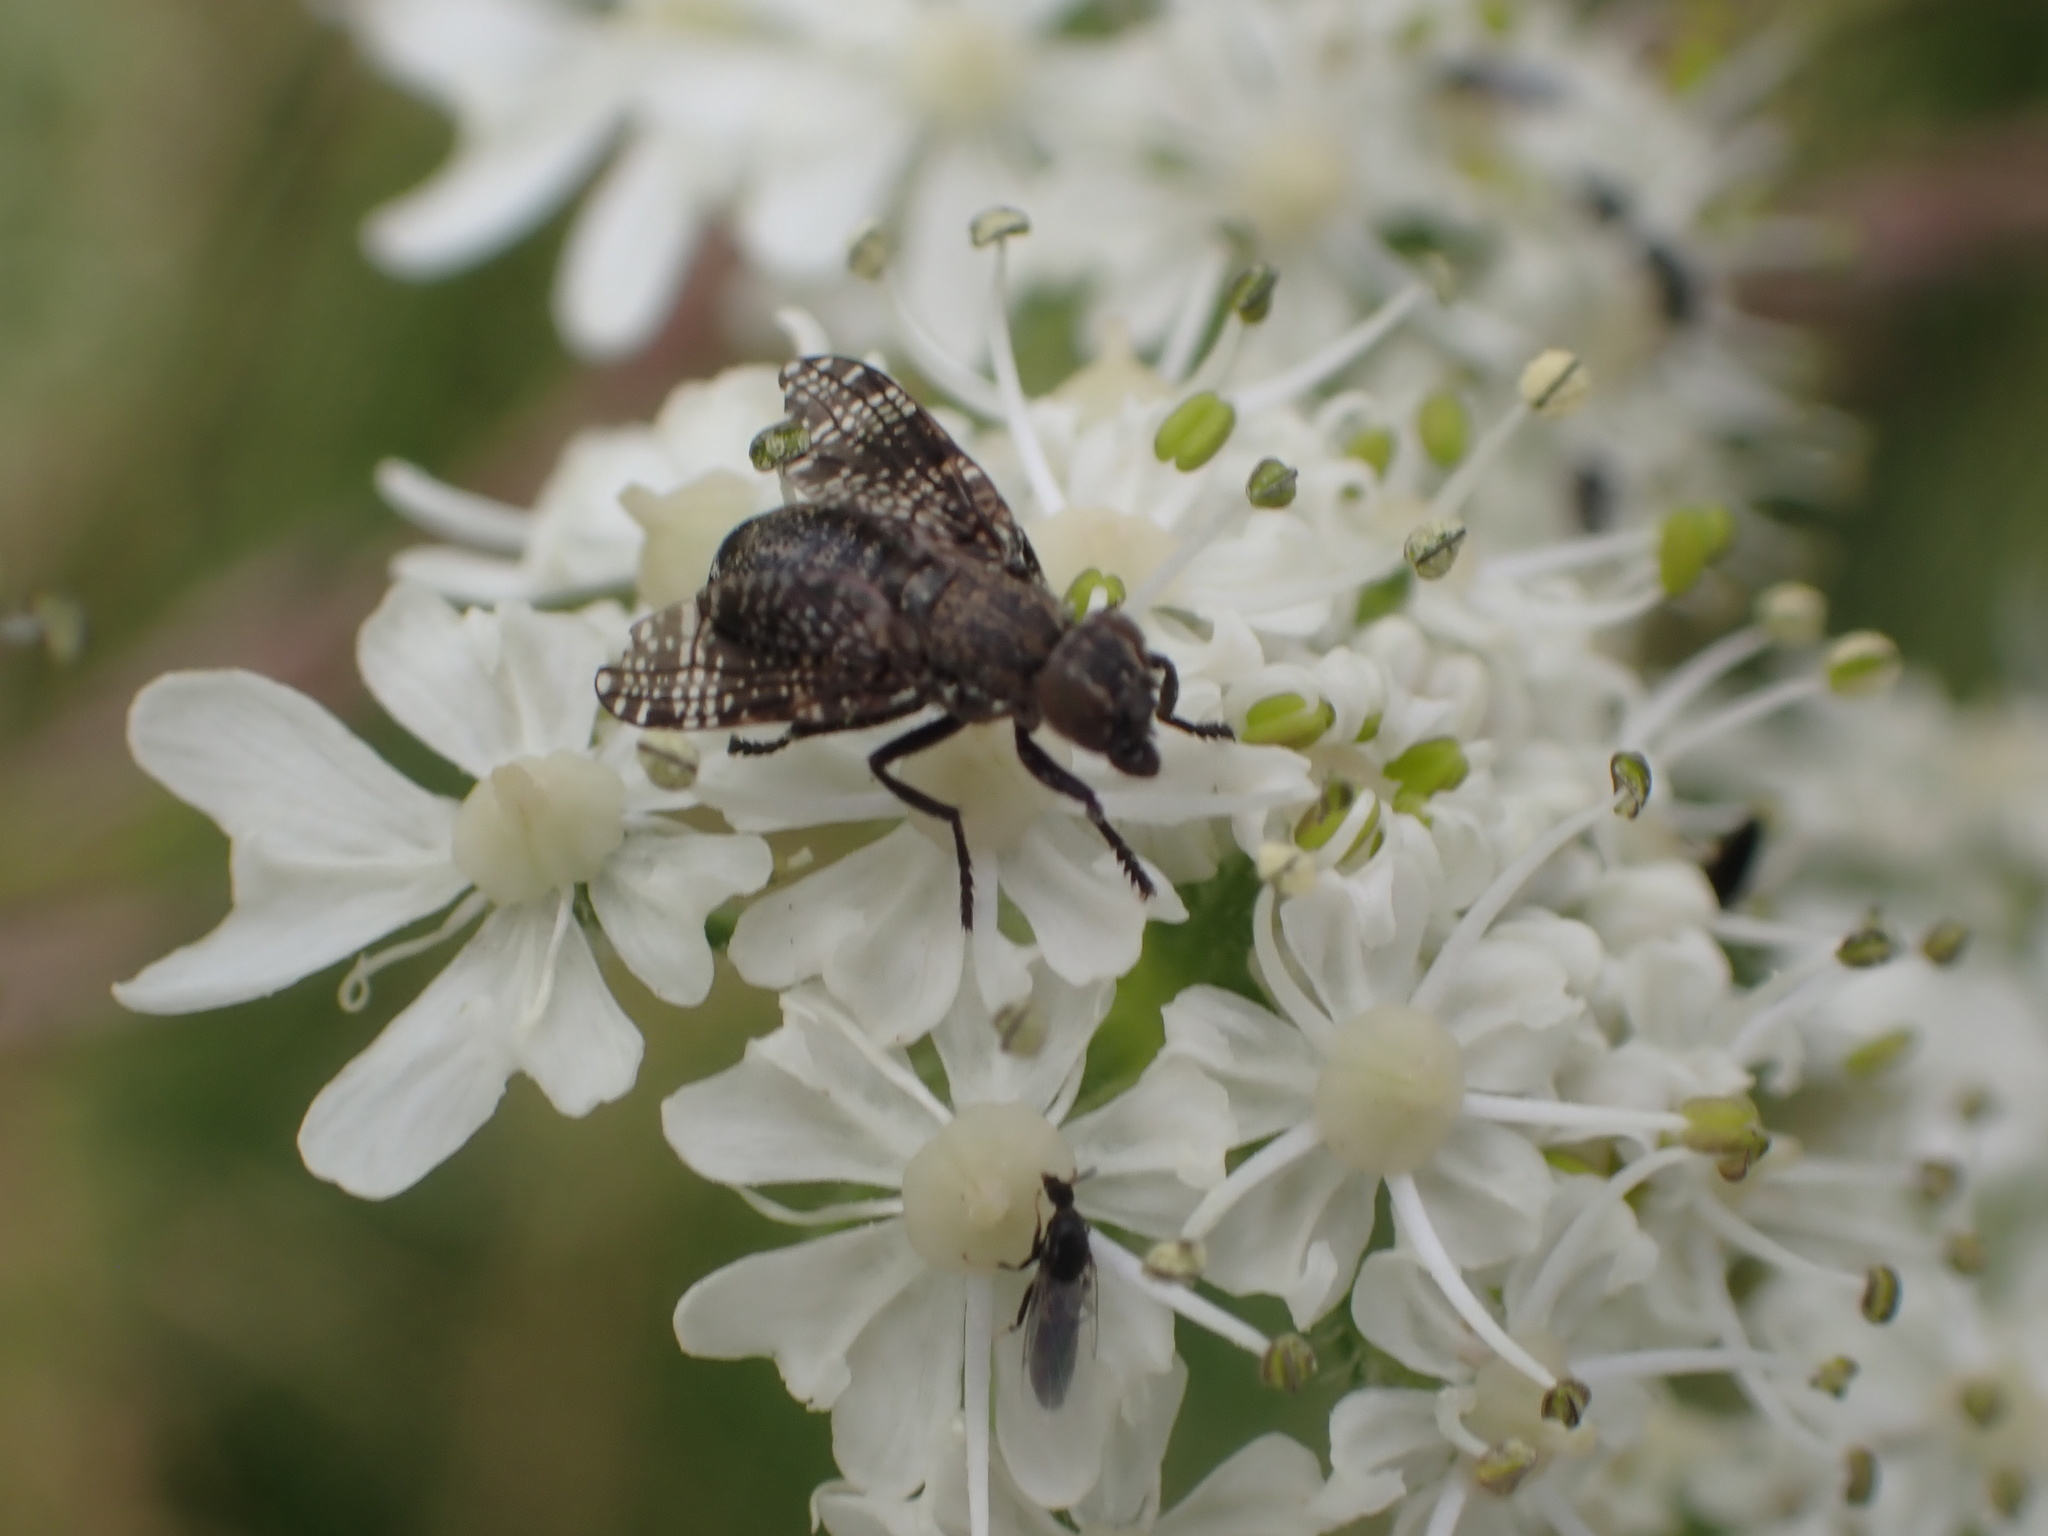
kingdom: Animalia
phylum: Arthropoda
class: Insecta
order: Diptera
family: Platystomatidae
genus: Platystoma
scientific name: Platystoma seminationis
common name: Fly
